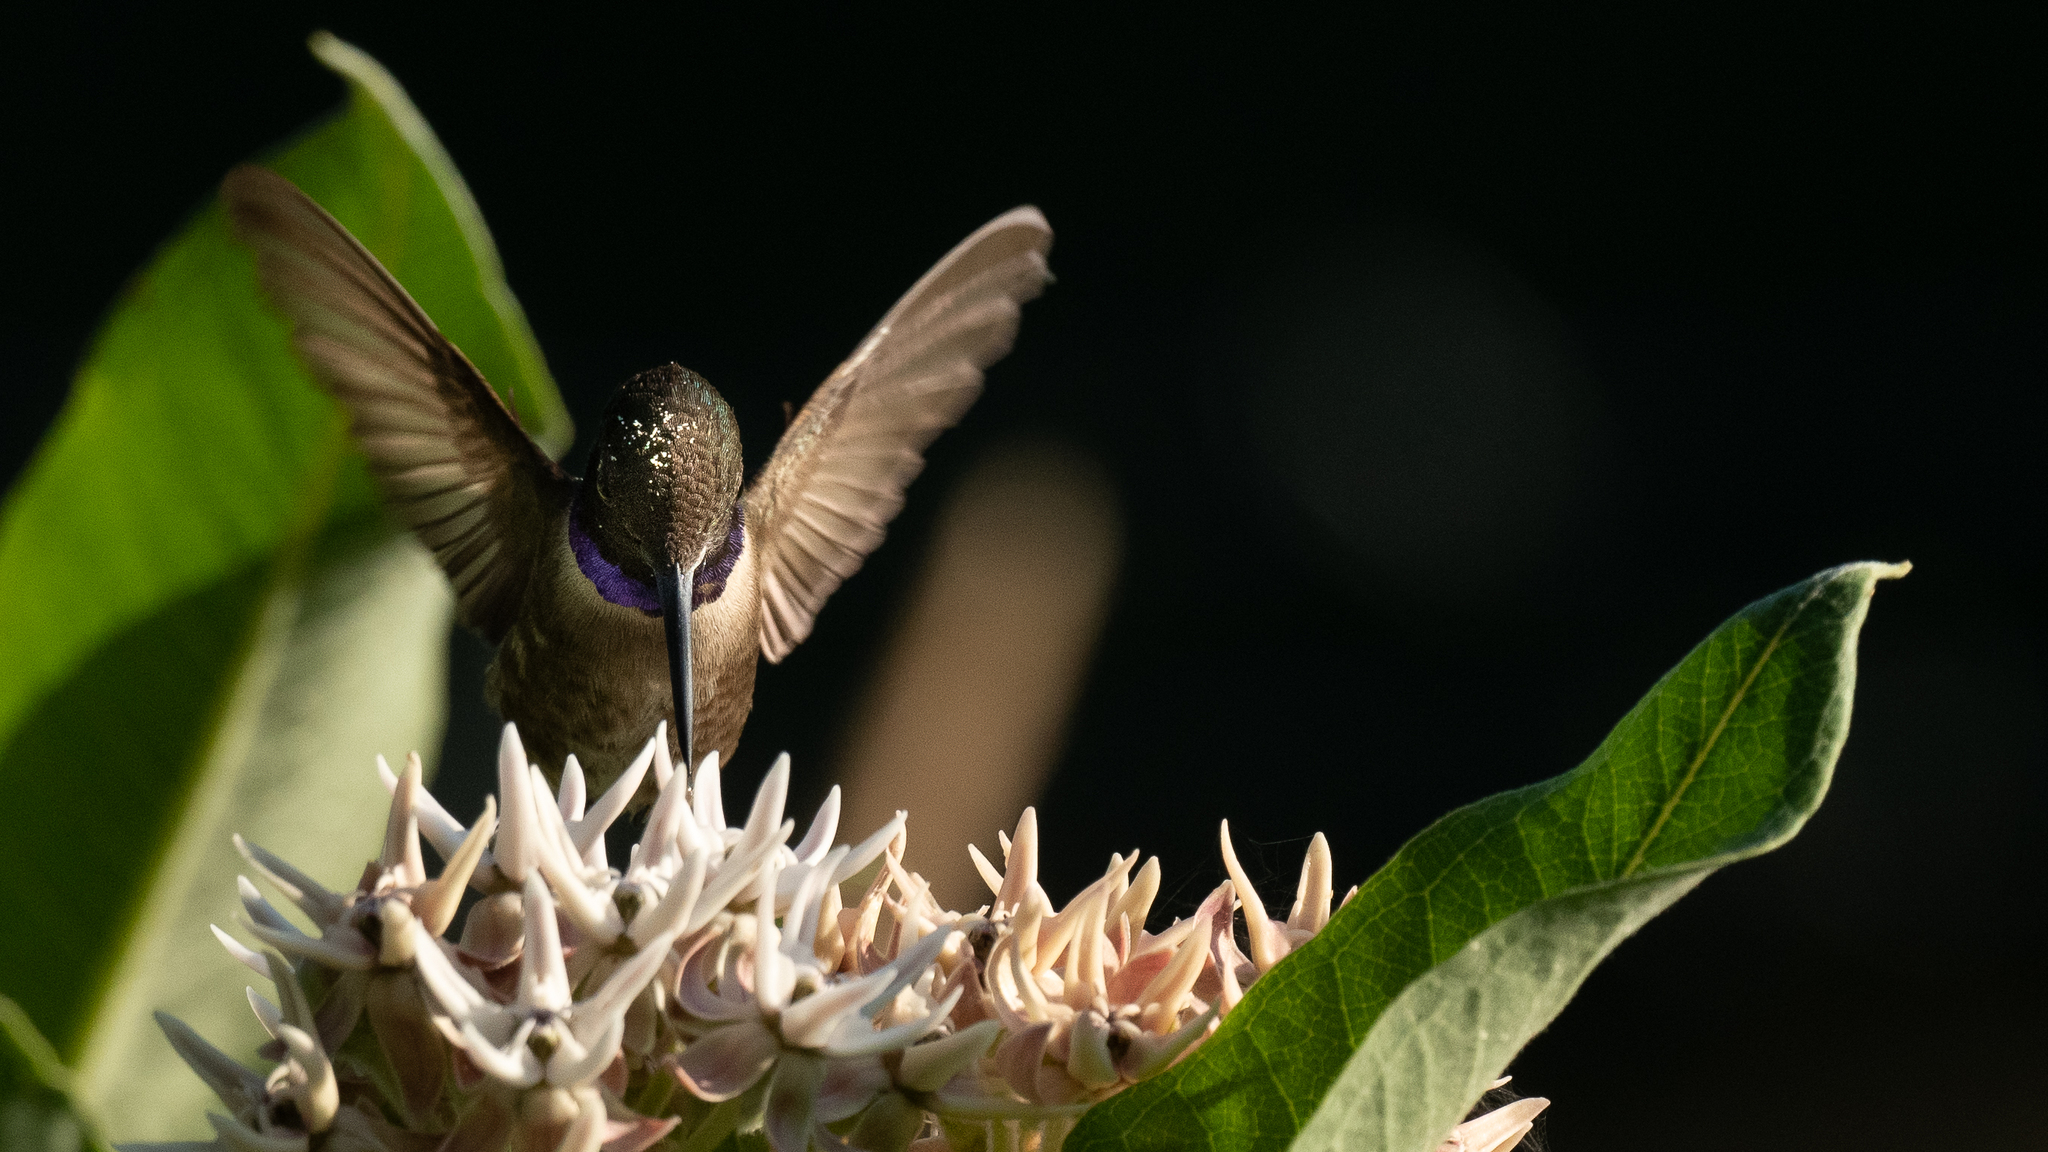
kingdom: Animalia
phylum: Chordata
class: Aves
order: Apodiformes
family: Trochilidae
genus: Archilochus
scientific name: Archilochus alexandri
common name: Black-chinned hummingbird
